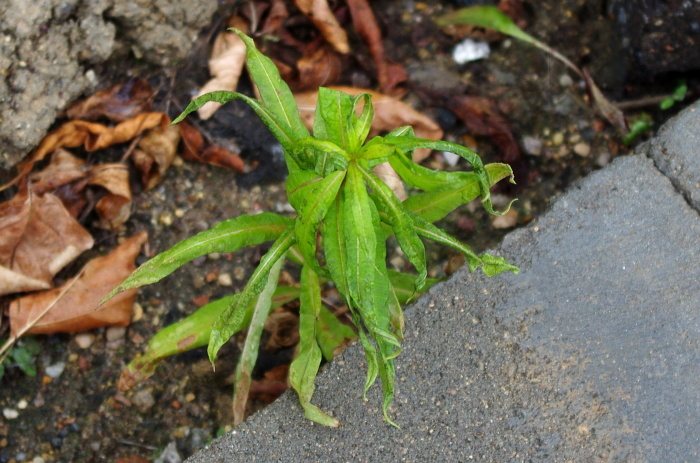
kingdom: Plantae
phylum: Tracheophyta
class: Magnoliopsida
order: Myrtales
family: Onagraceae
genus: Chamaenerion
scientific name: Chamaenerion angustifolium
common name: Fireweed
